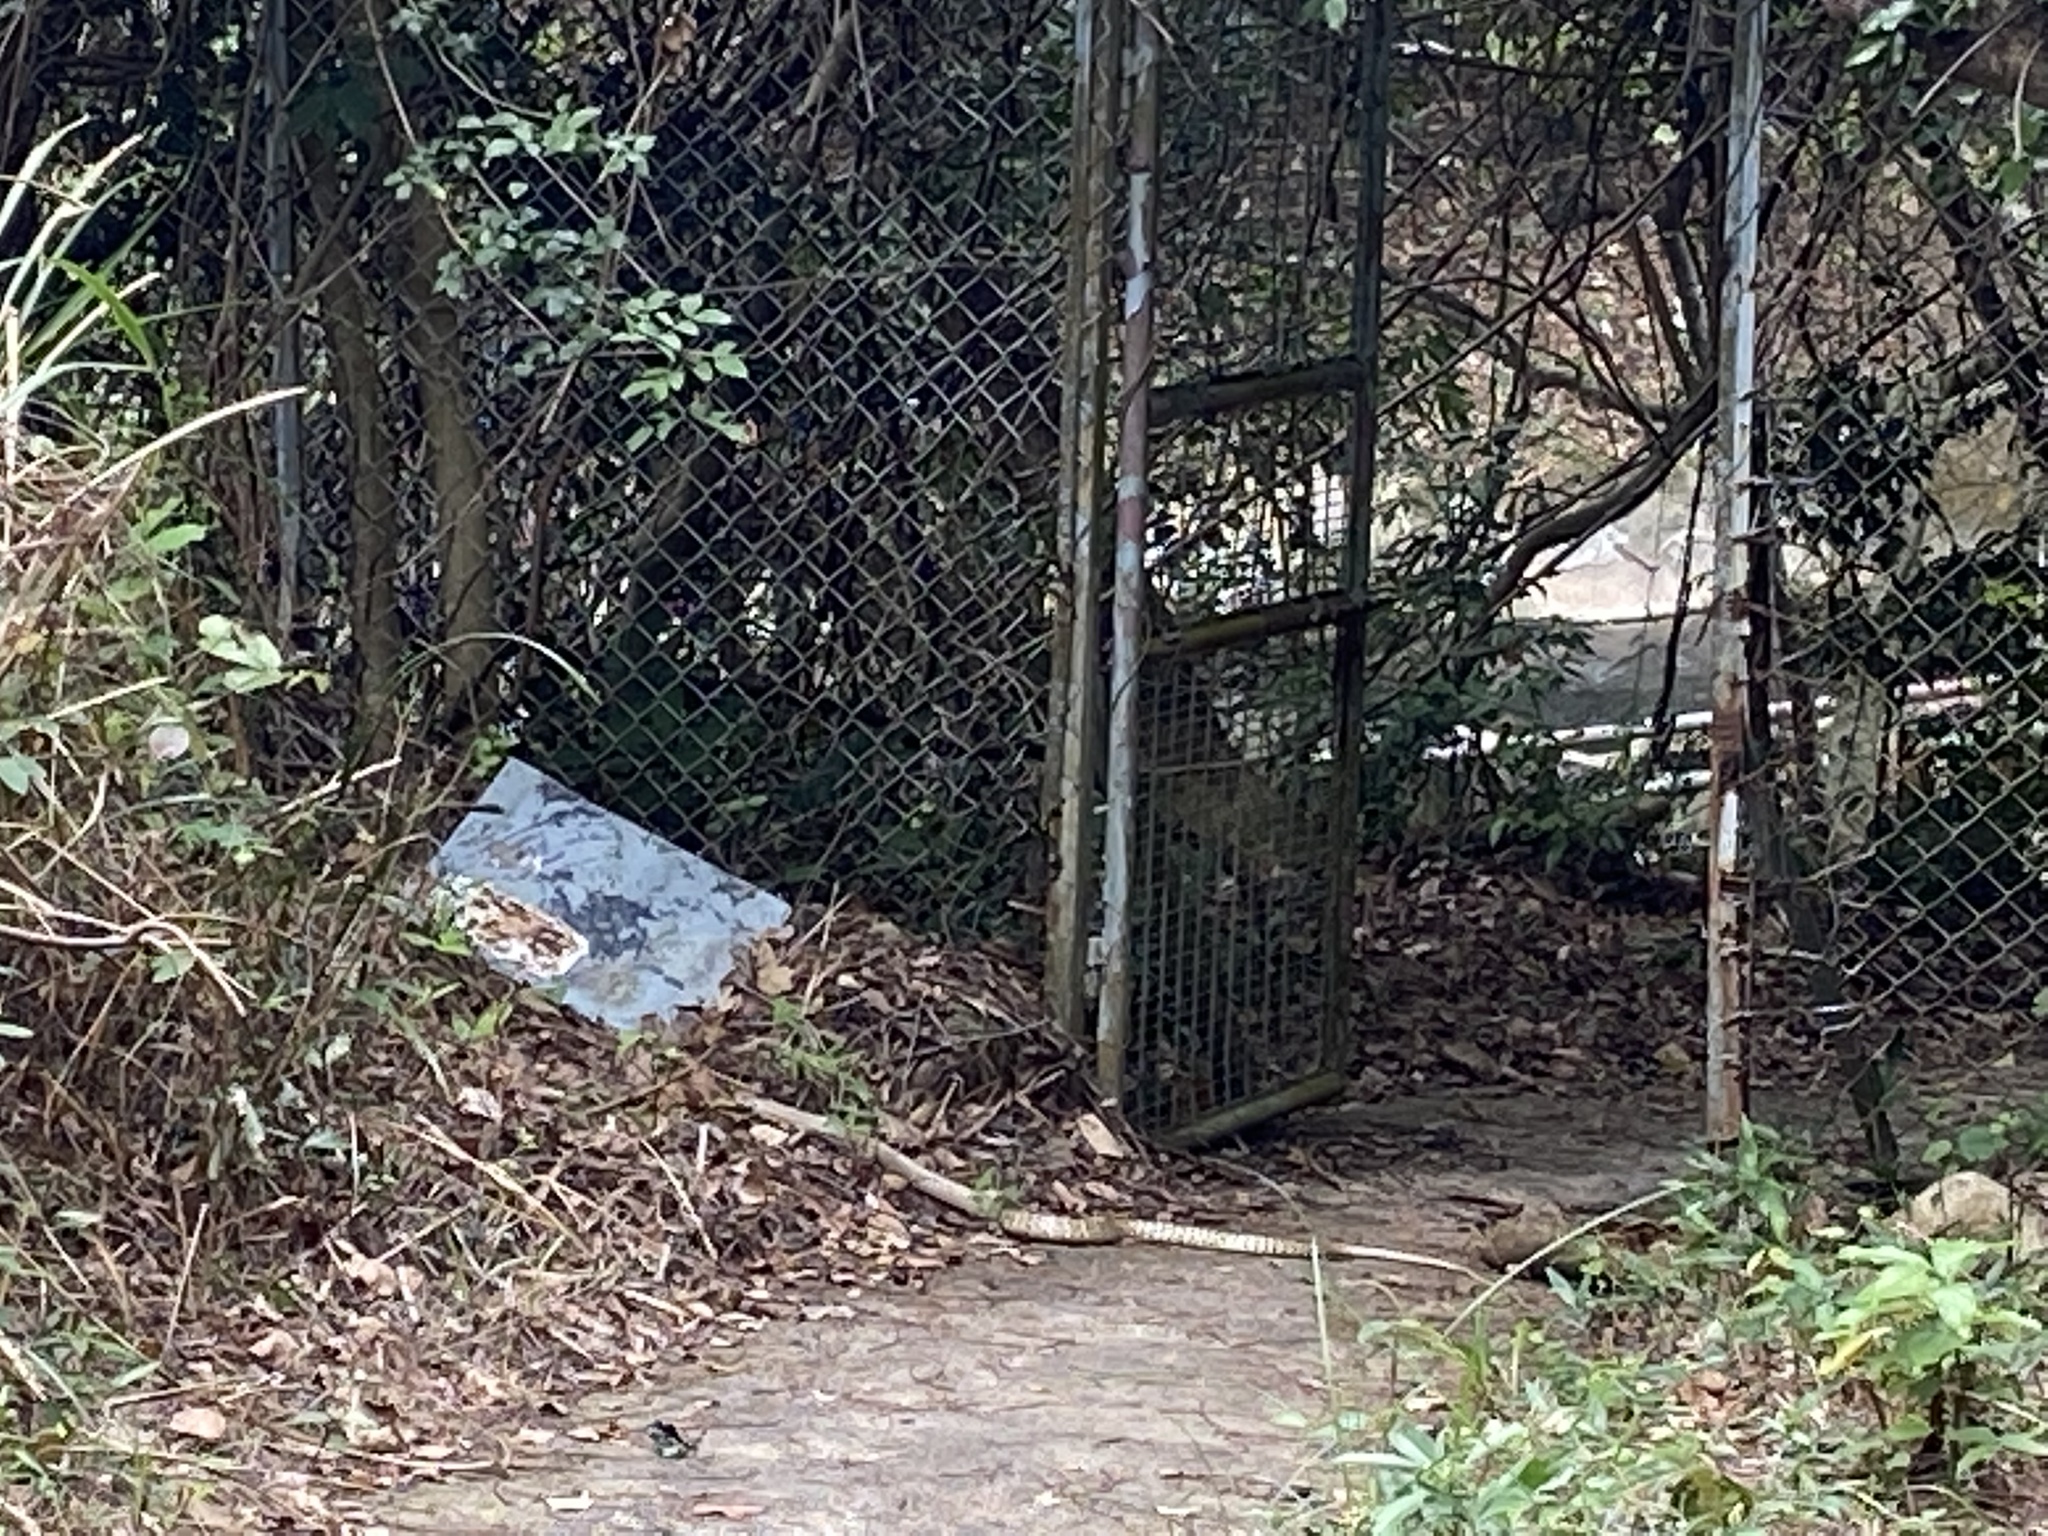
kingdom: Animalia
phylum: Chordata
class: Squamata
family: Colubridae
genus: Ptyas
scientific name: Ptyas mucosa
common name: Oriental ratsnake
